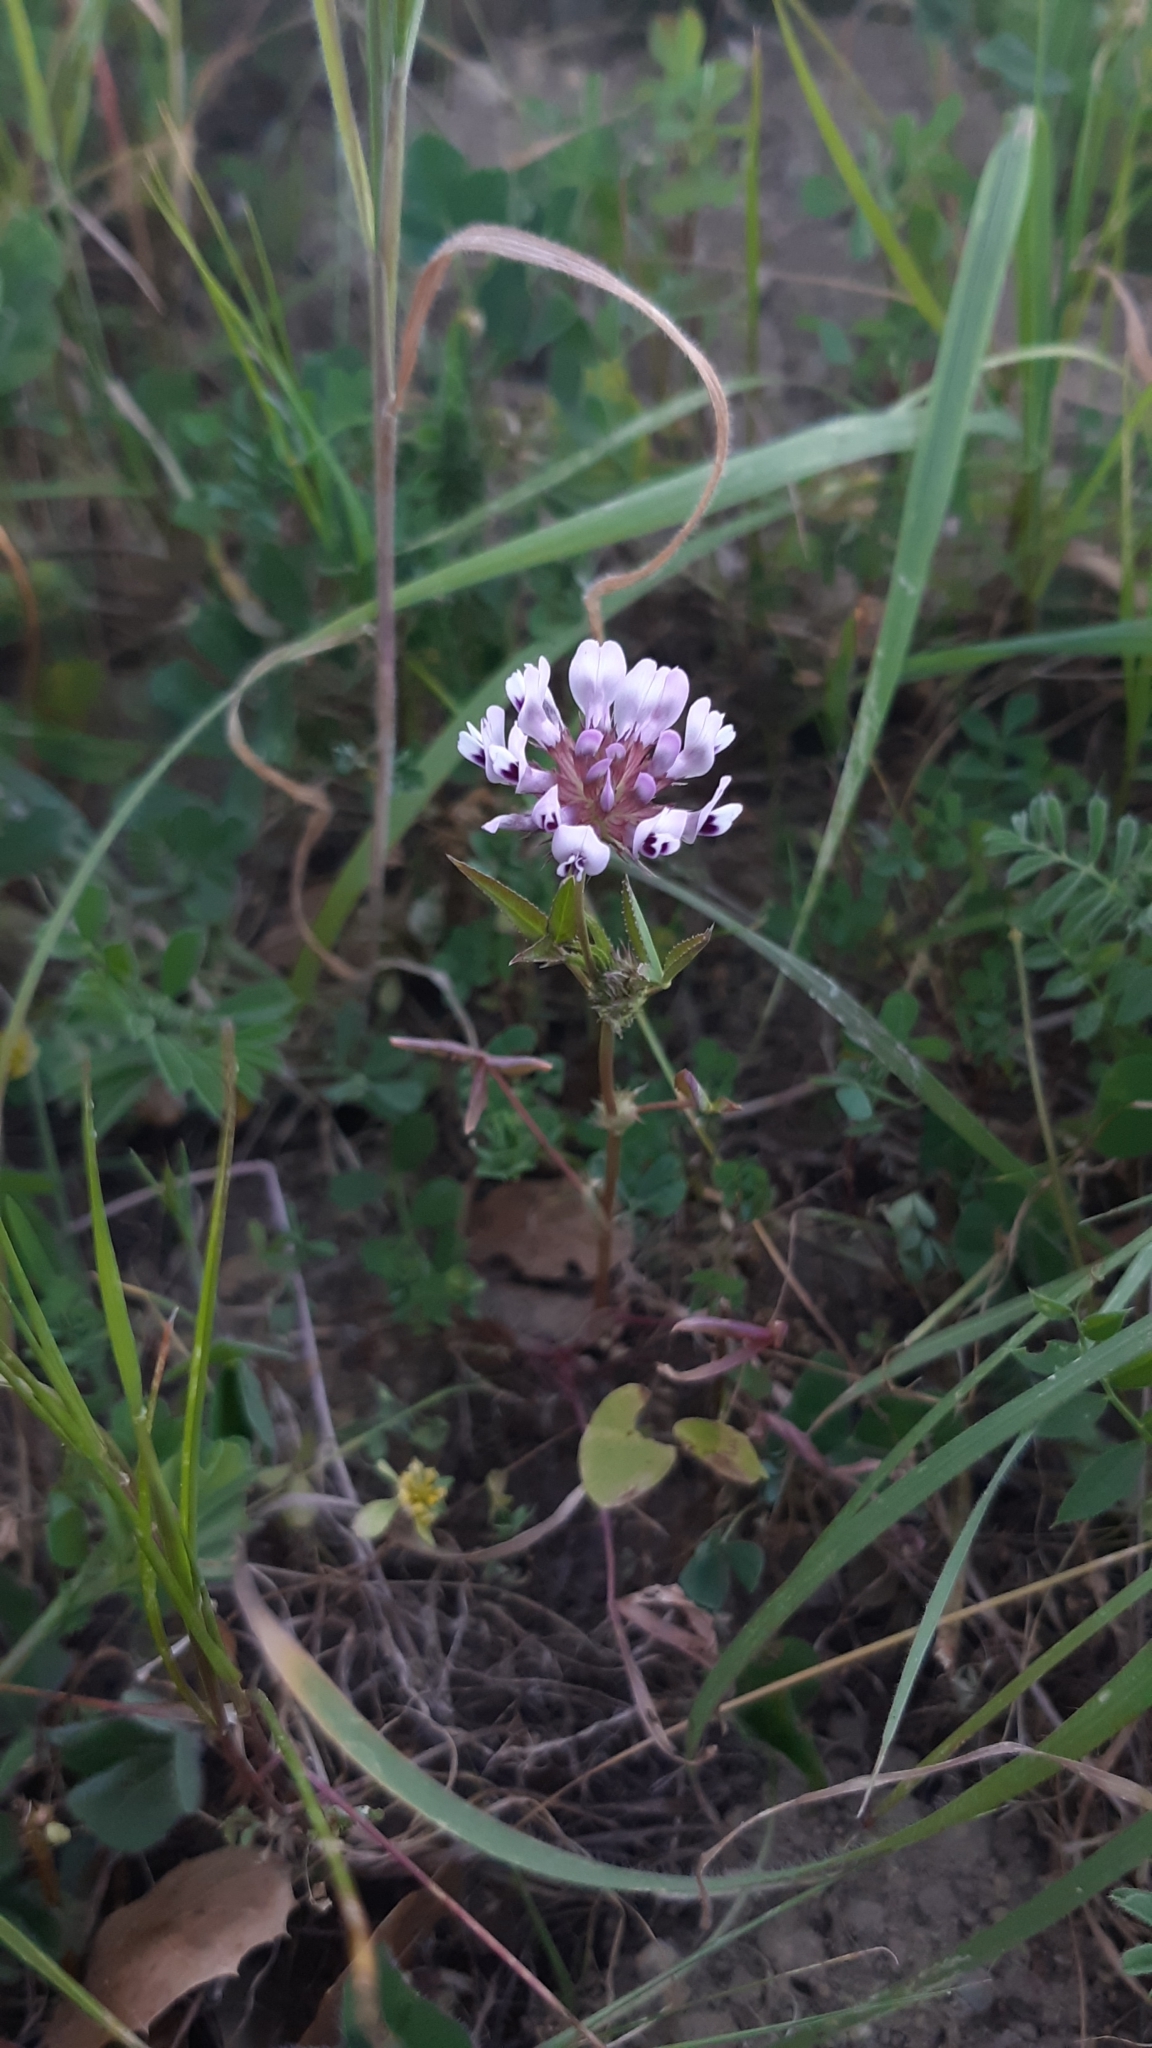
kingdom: Plantae
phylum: Tracheophyta
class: Magnoliopsida
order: Fabales
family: Fabaceae
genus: Trifolium
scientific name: Trifolium willdenovii
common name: Tomcat clover
